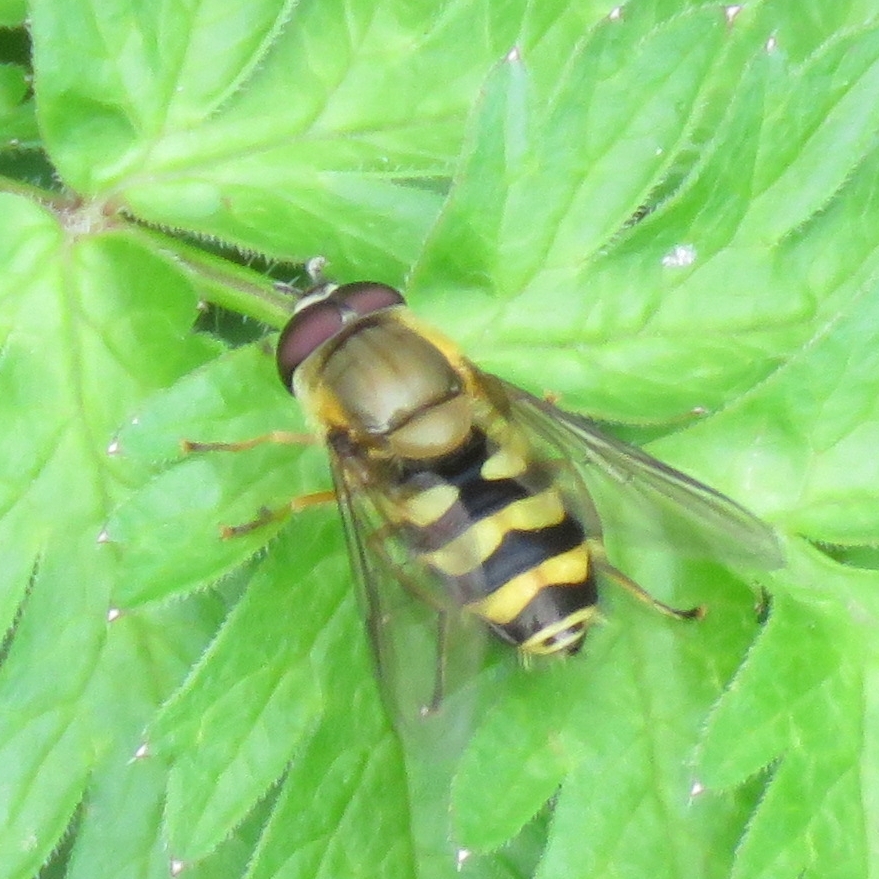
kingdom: Animalia
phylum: Arthropoda
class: Insecta
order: Diptera
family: Syrphidae
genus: Syrphus
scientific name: Syrphus
